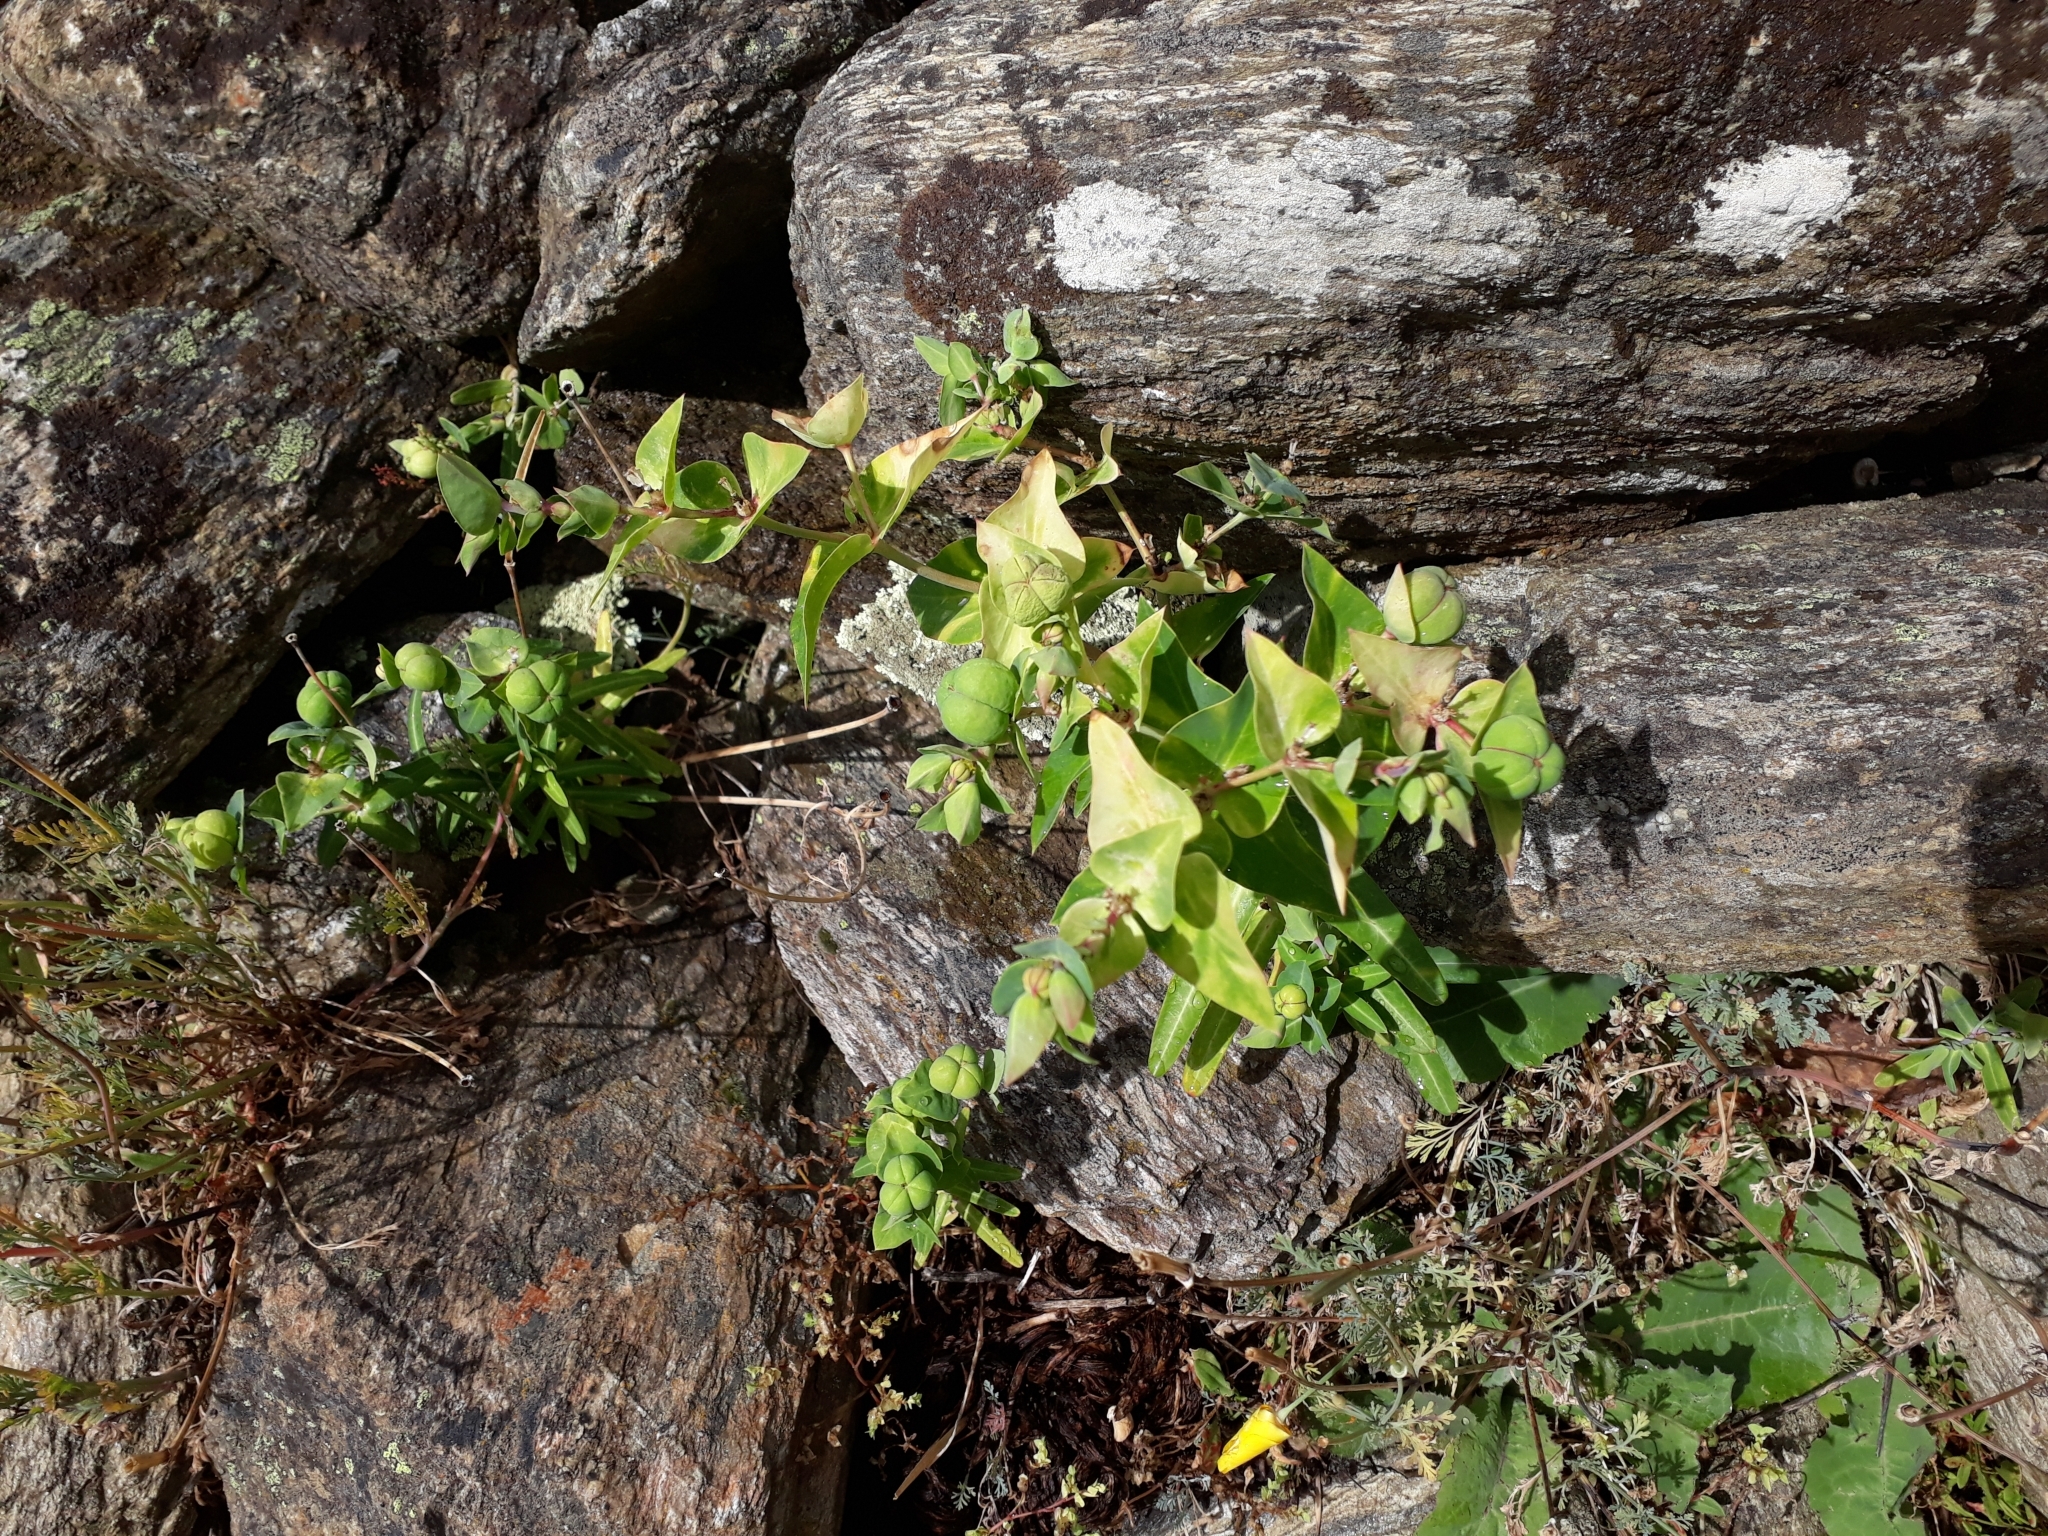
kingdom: Plantae
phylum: Tracheophyta
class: Magnoliopsida
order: Malpighiales
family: Euphorbiaceae
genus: Euphorbia
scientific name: Euphorbia lathyris
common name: Caper spurge
